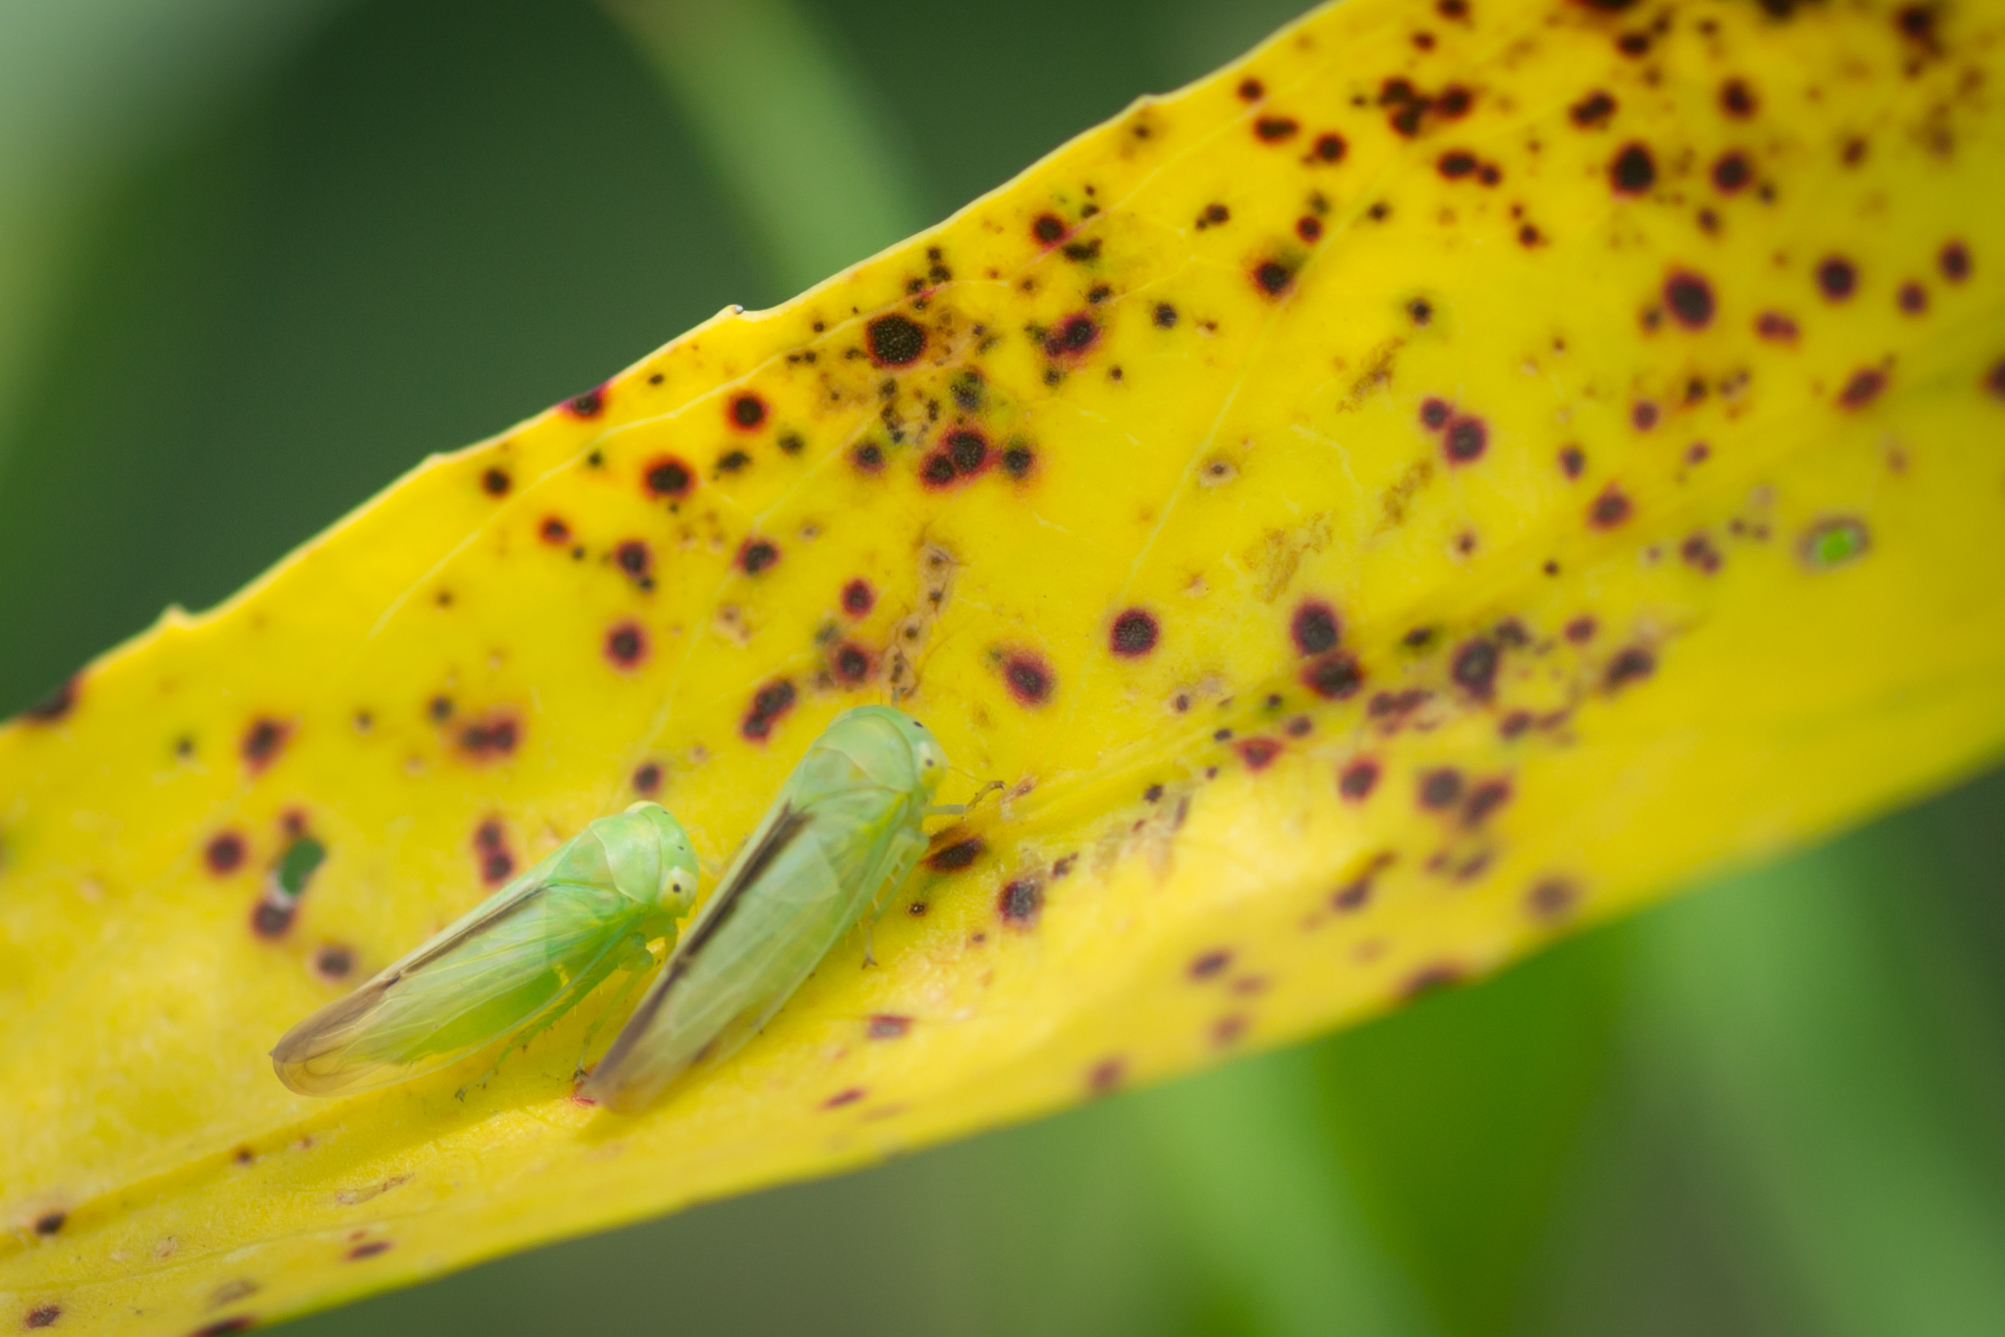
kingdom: Animalia
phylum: Arthropoda
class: Insecta
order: Hemiptera
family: Cicadellidae
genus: Idiocerus
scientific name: Idiocerus raphus
